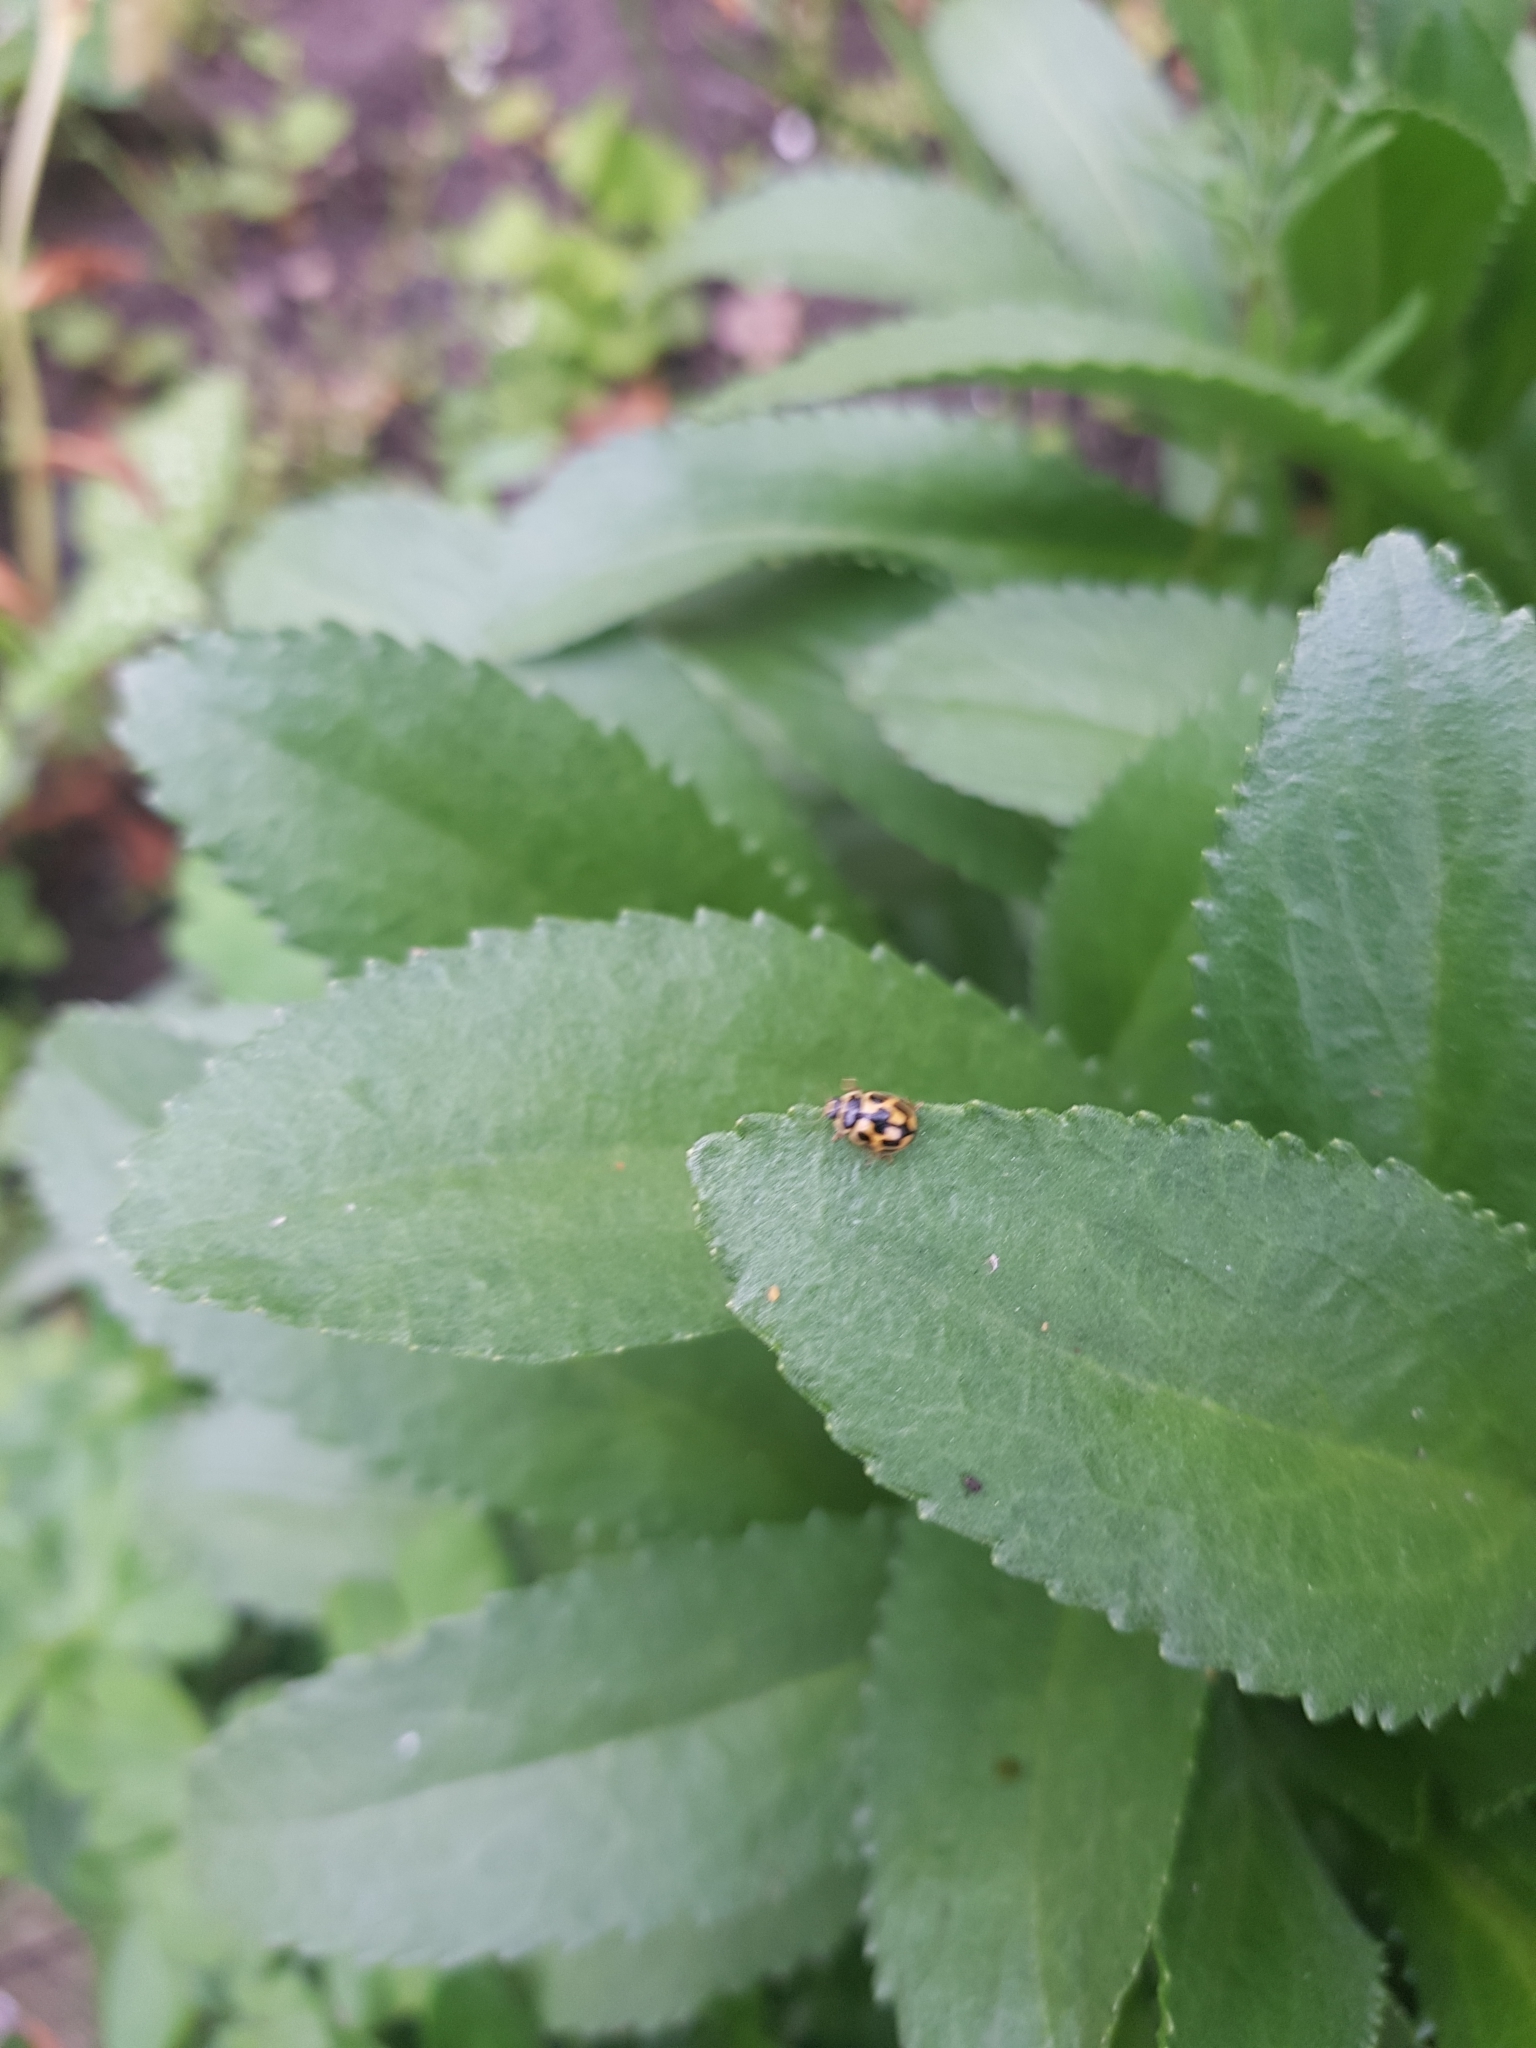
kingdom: Animalia
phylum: Arthropoda
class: Insecta
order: Coleoptera
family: Coccinellidae
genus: Propylaea
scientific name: Propylaea quatuordecimpunctata
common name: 14-spotted ladybird beetle
